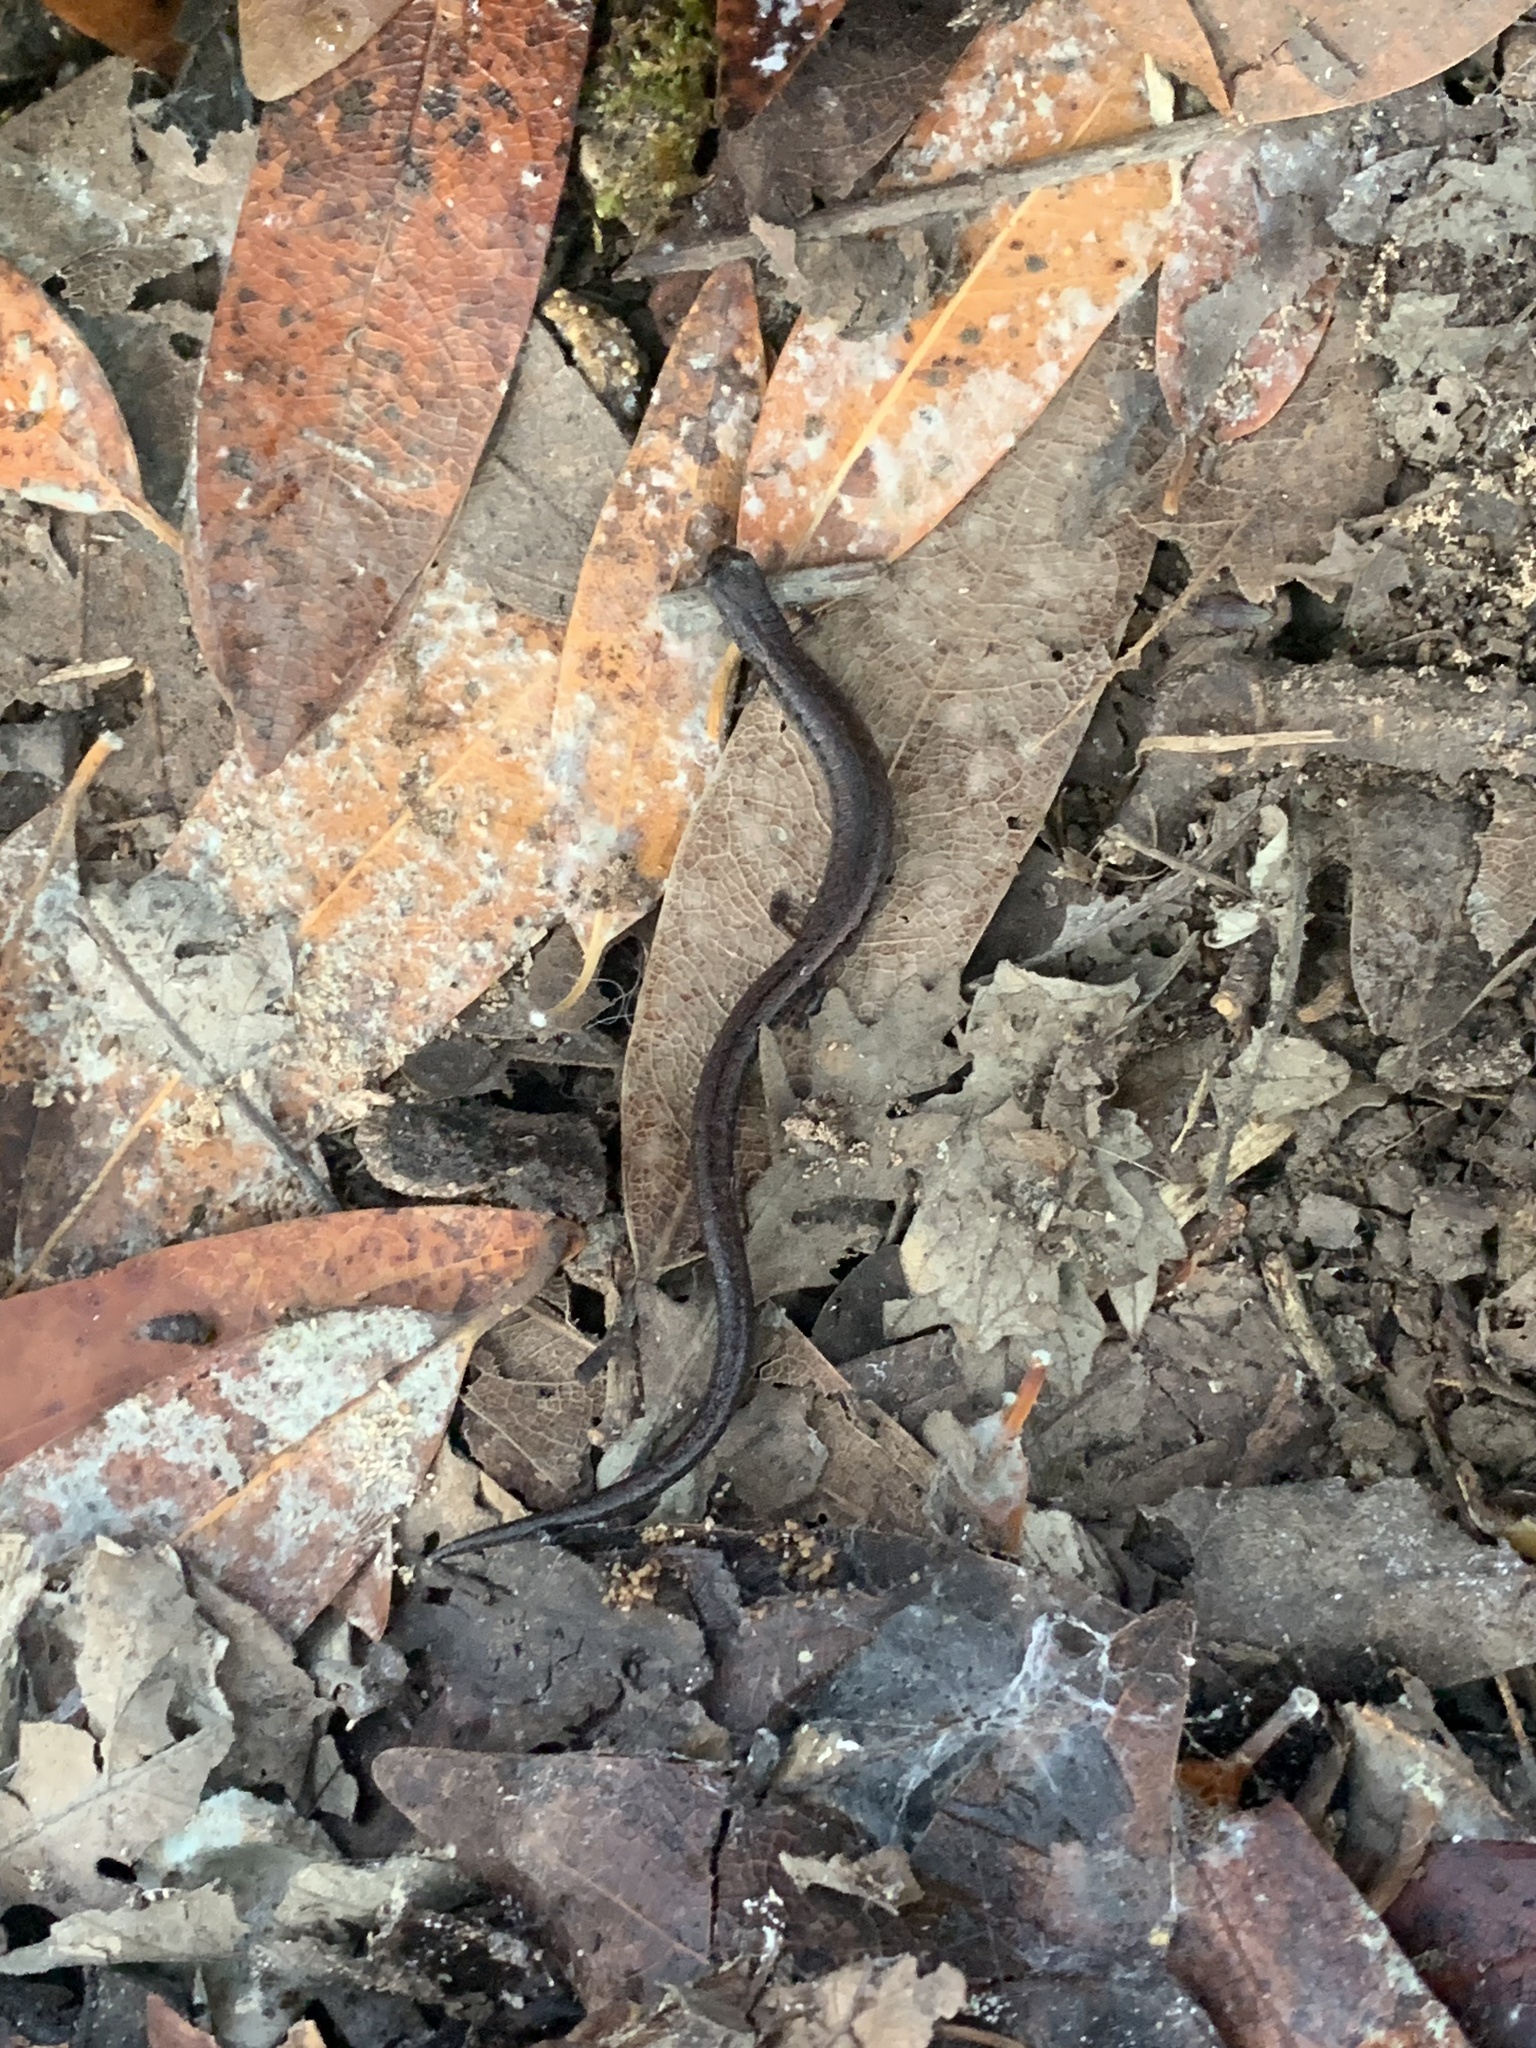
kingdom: Animalia
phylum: Chordata
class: Amphibia
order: Caudata
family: Plethodontidae
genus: Batrachoseps
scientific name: Batrachoseps attenuatus
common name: California slender salamander
